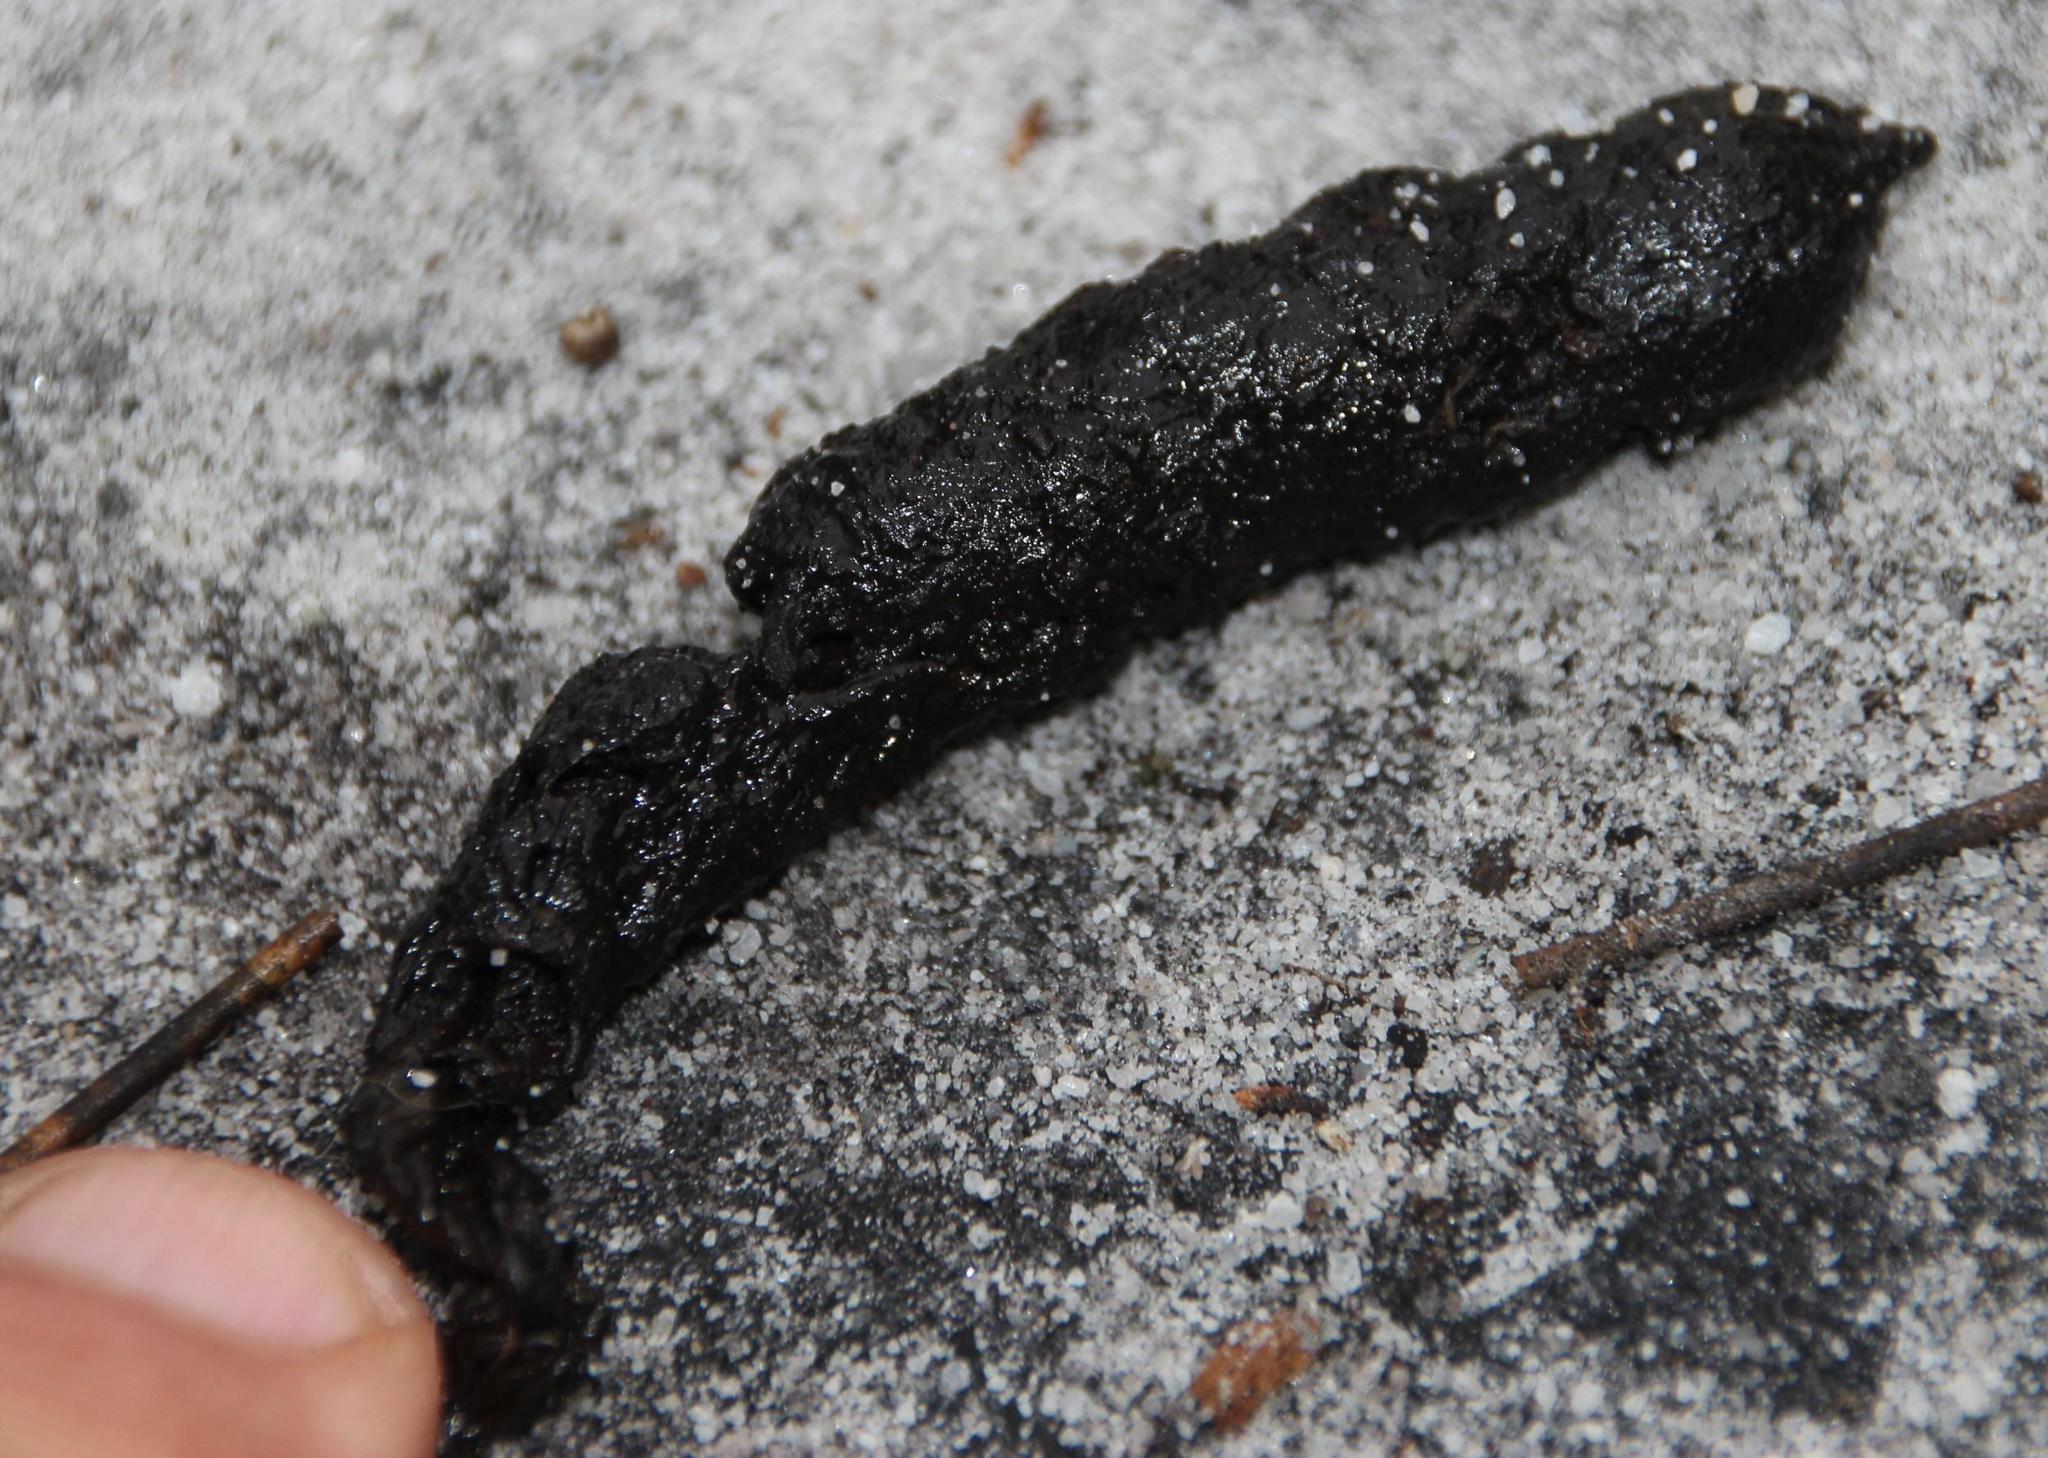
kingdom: Animalia
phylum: Chordata
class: Mammalia
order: Carnivora
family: Herpestidae
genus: Galerella
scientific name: Galerella pulverulenta
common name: Cape gray mongoose
